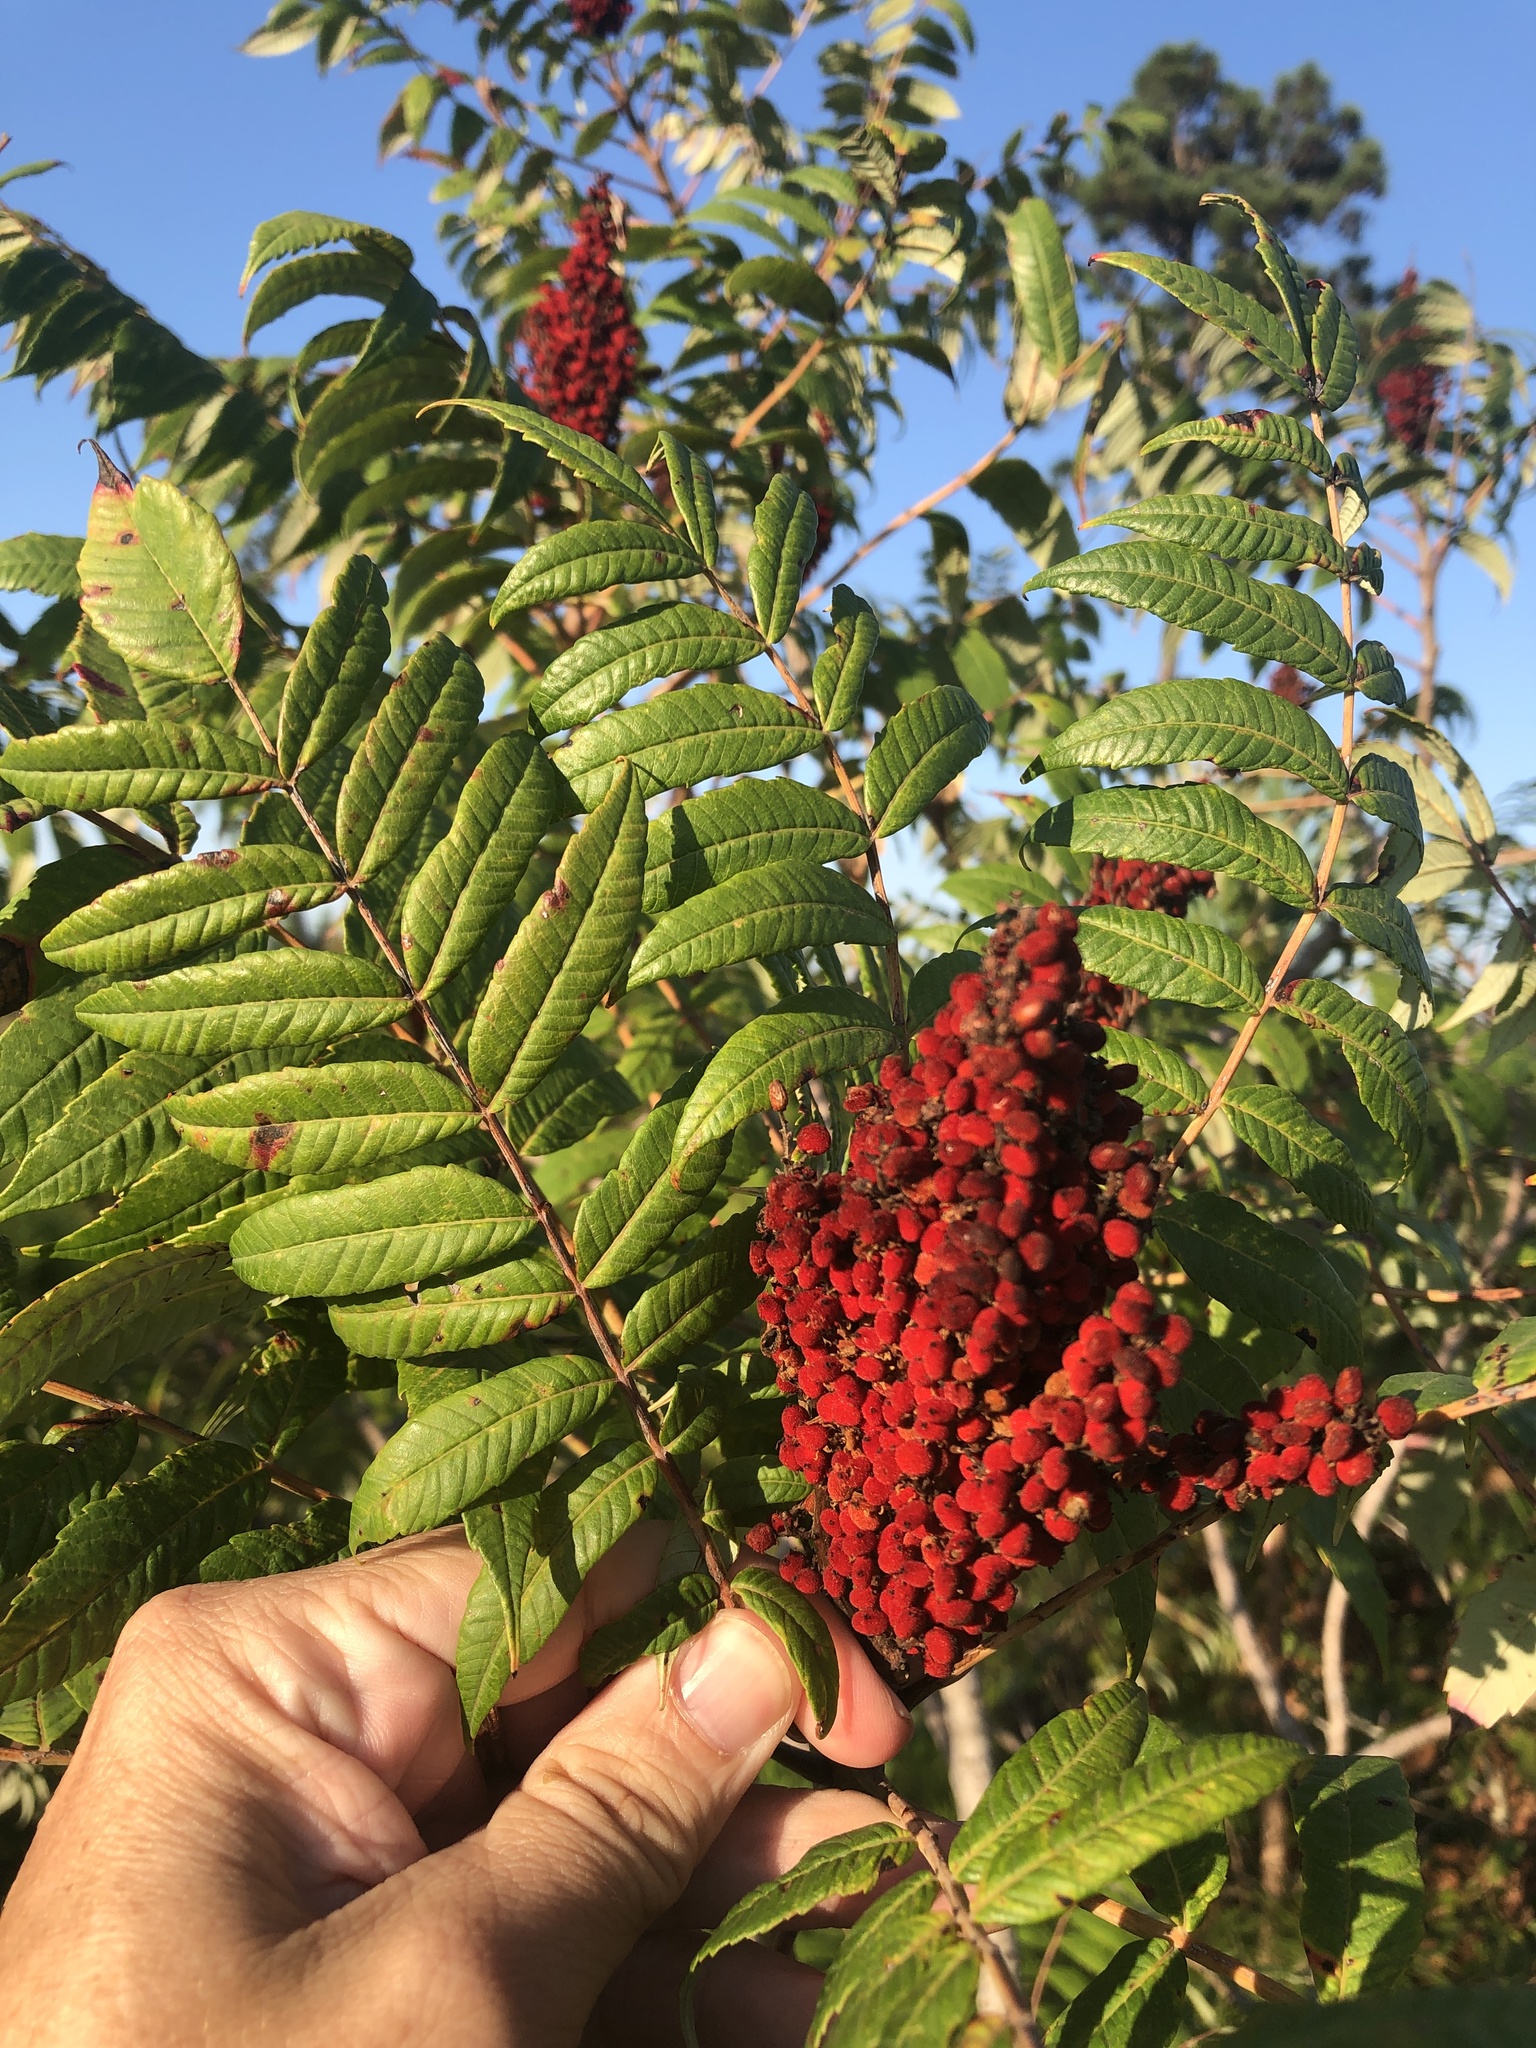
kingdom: Plantae
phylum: Tracheophyta
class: Magnoliopsida
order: Sapindales
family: Anacardiaceae
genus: Rhus
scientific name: Rhus glabra
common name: Scarlet sumac
